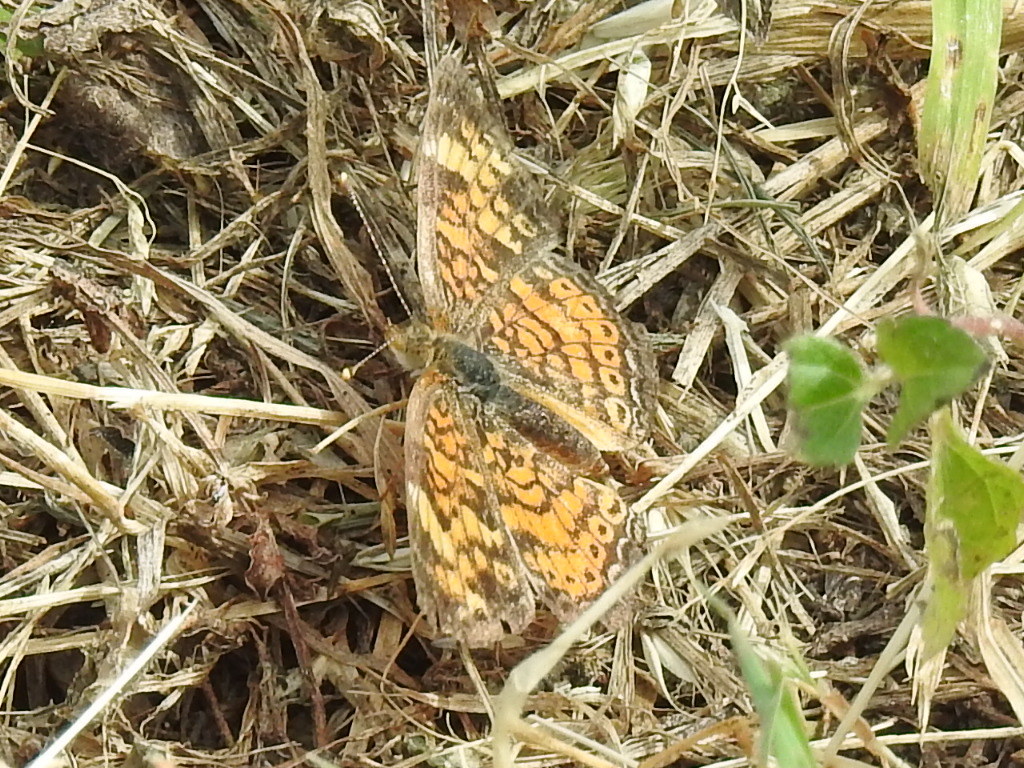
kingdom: Animalia
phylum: Arthropoda
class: Insecta
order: Lepidoptera
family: Nymphalidae
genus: Phyciodes
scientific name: Phyciodes tharos
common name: Pearl crescent
